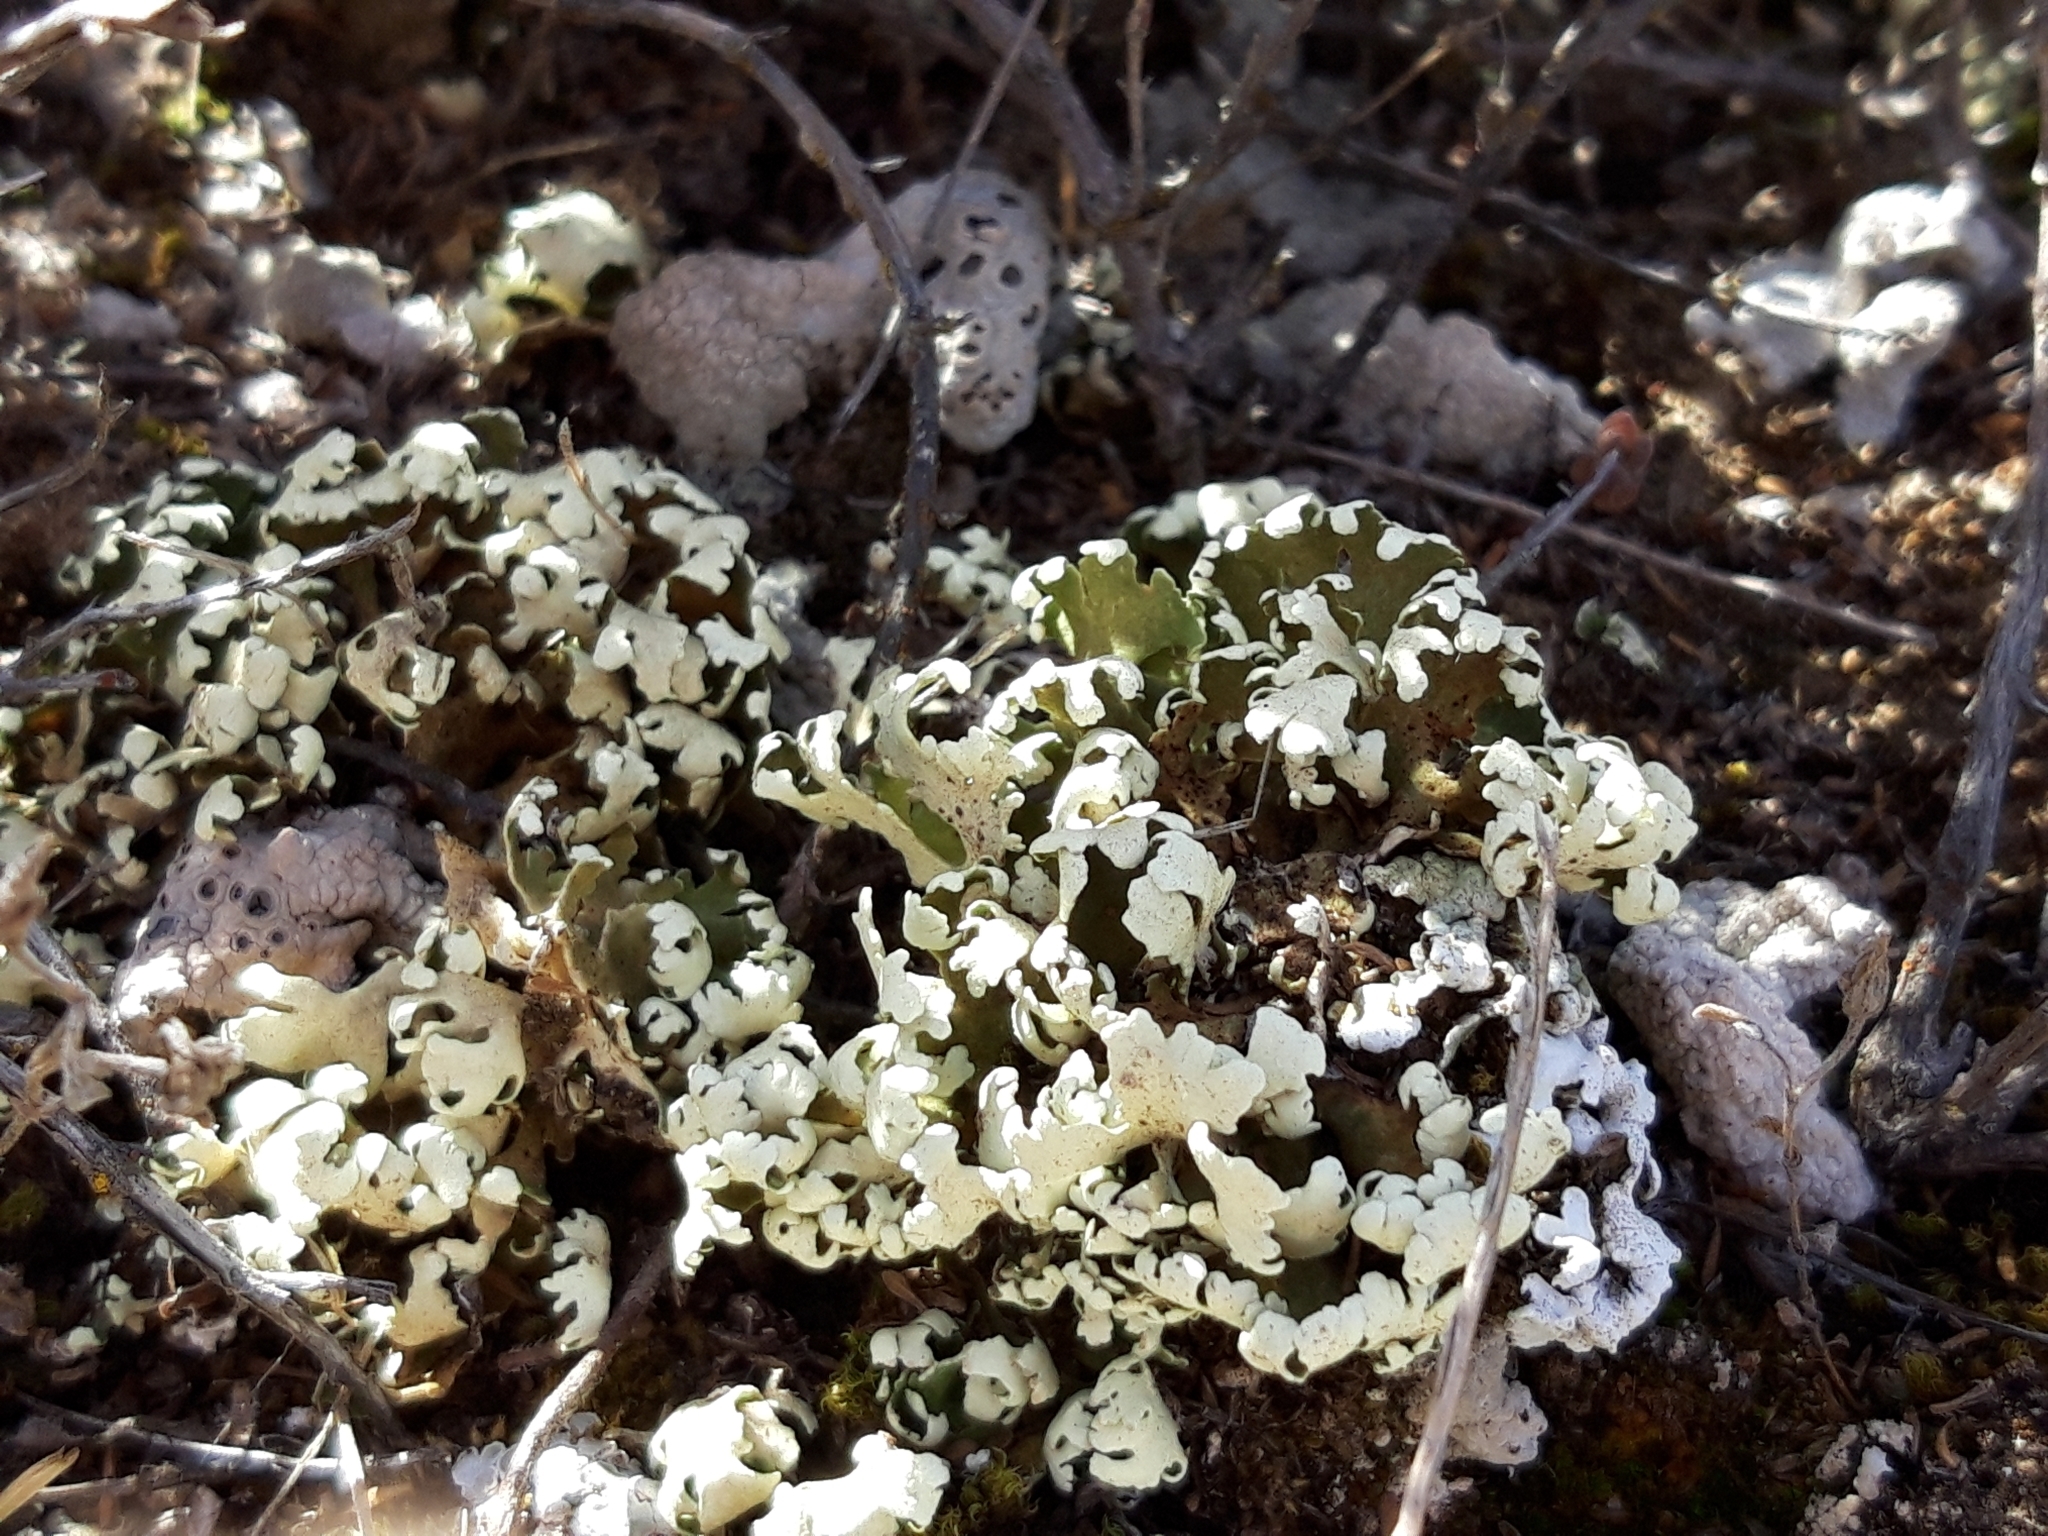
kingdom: Fungi
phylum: Ascomycota
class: Lecanoromycetes
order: Lecanorales
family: Cladoniaceae
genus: Cladonia
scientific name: Cladonia foliacea
